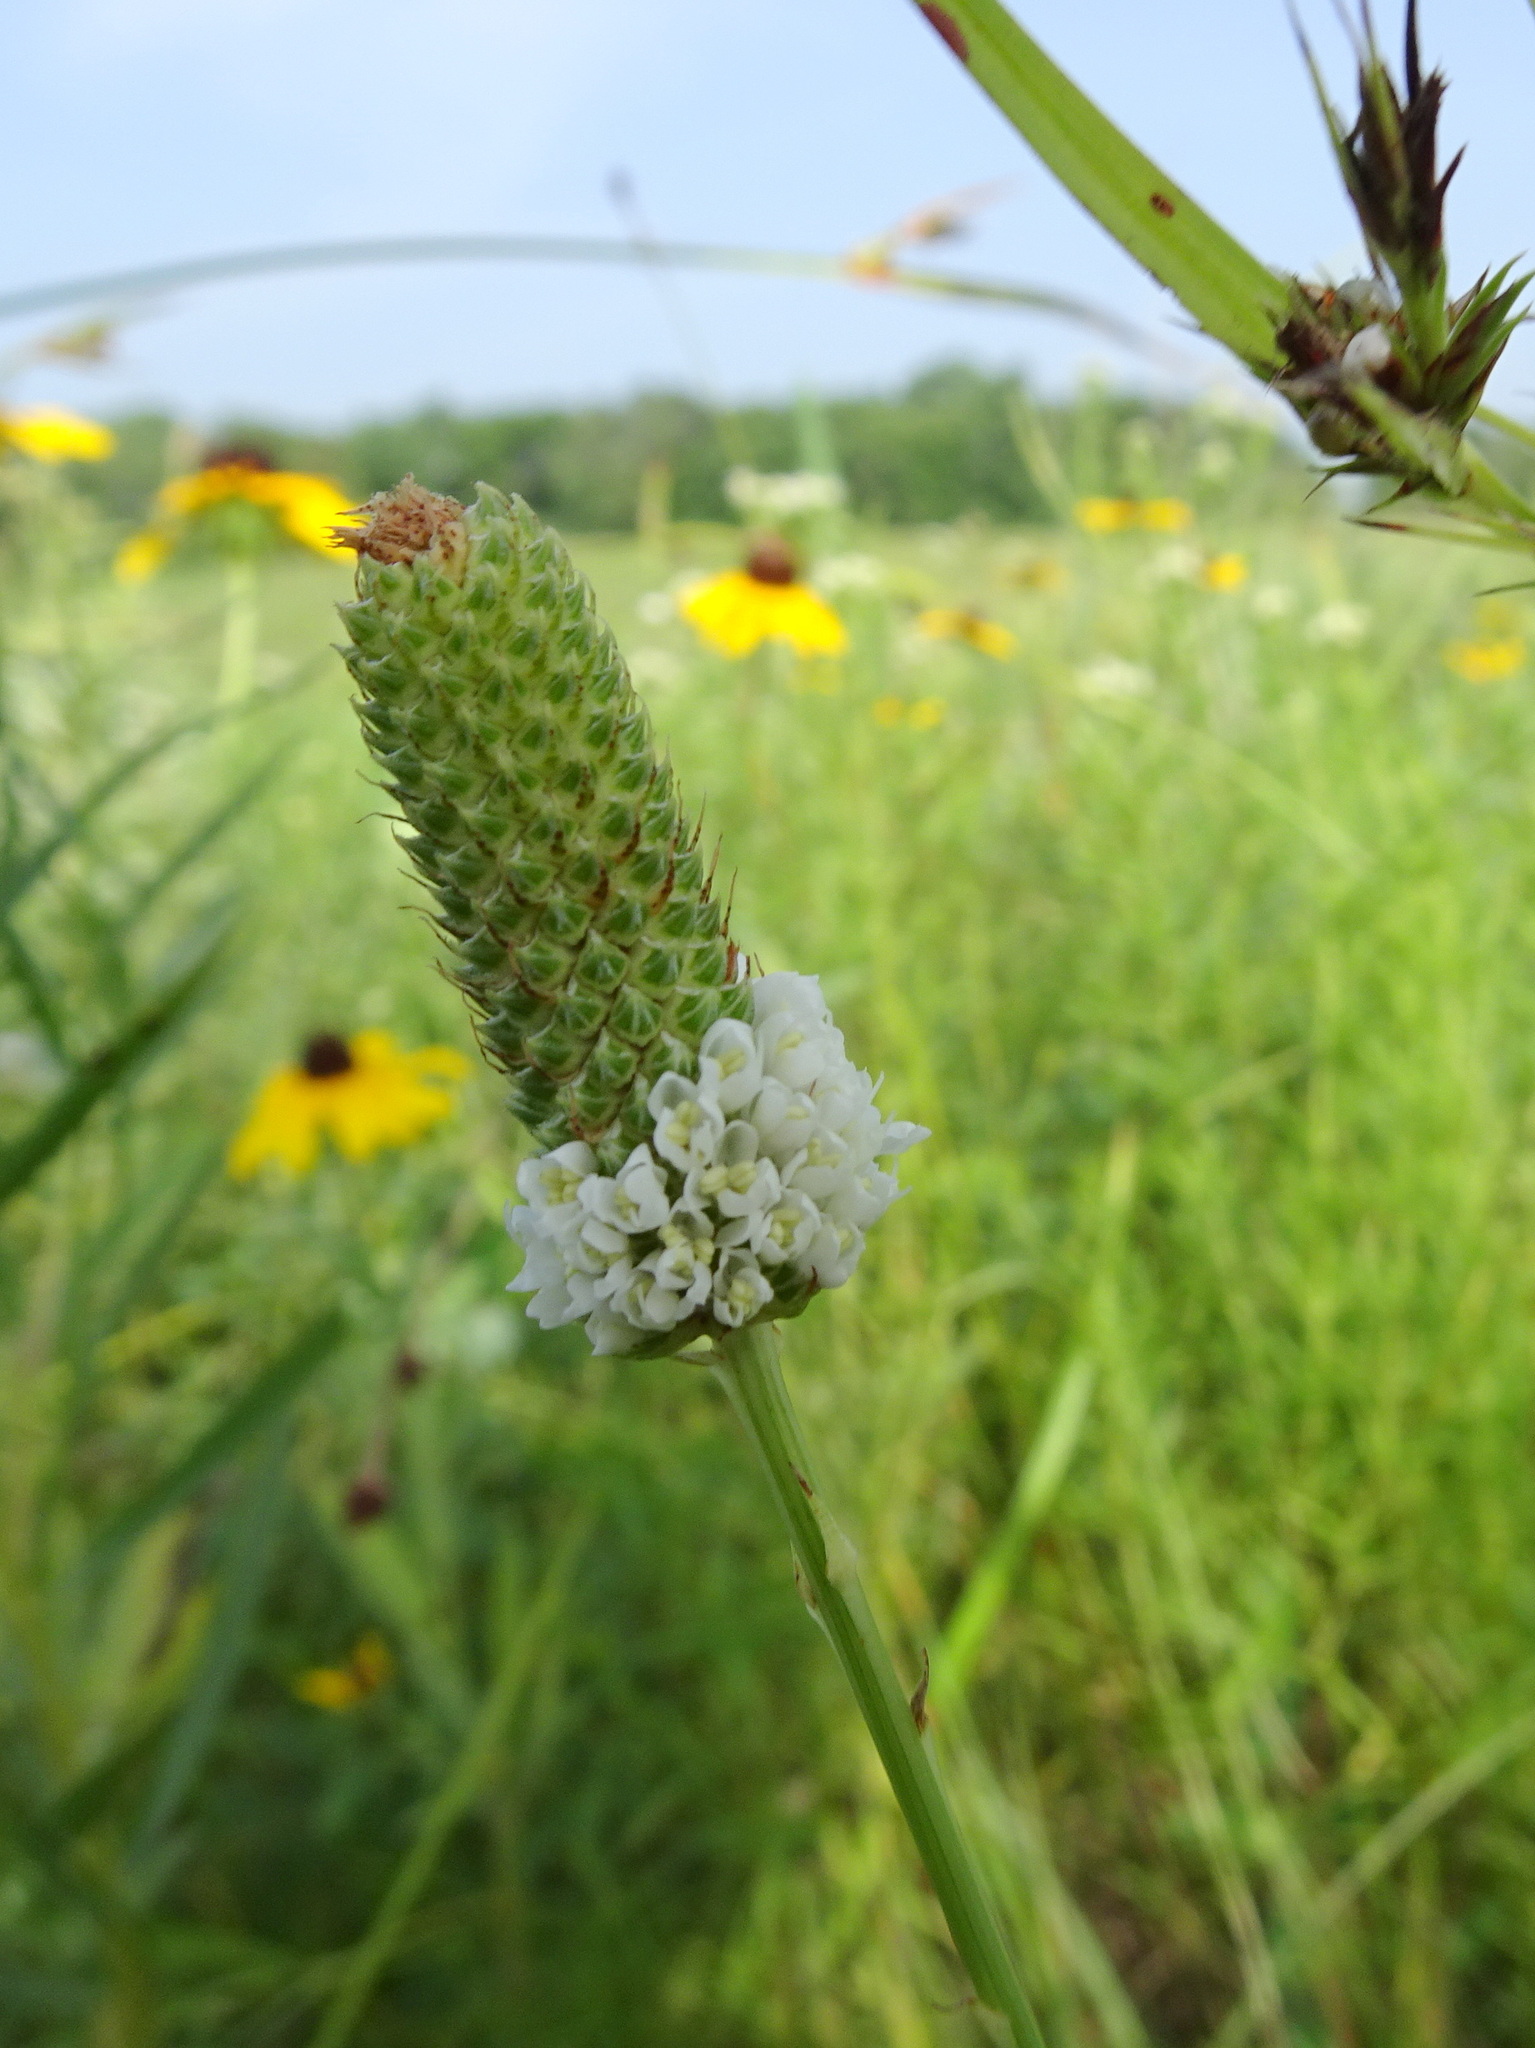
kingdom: Plantae
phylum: Tracheophyta
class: Magnoliopsida
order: Fabales
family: Fabaceae
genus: Dalea
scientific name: Dalea candida
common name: White prairie-clover
